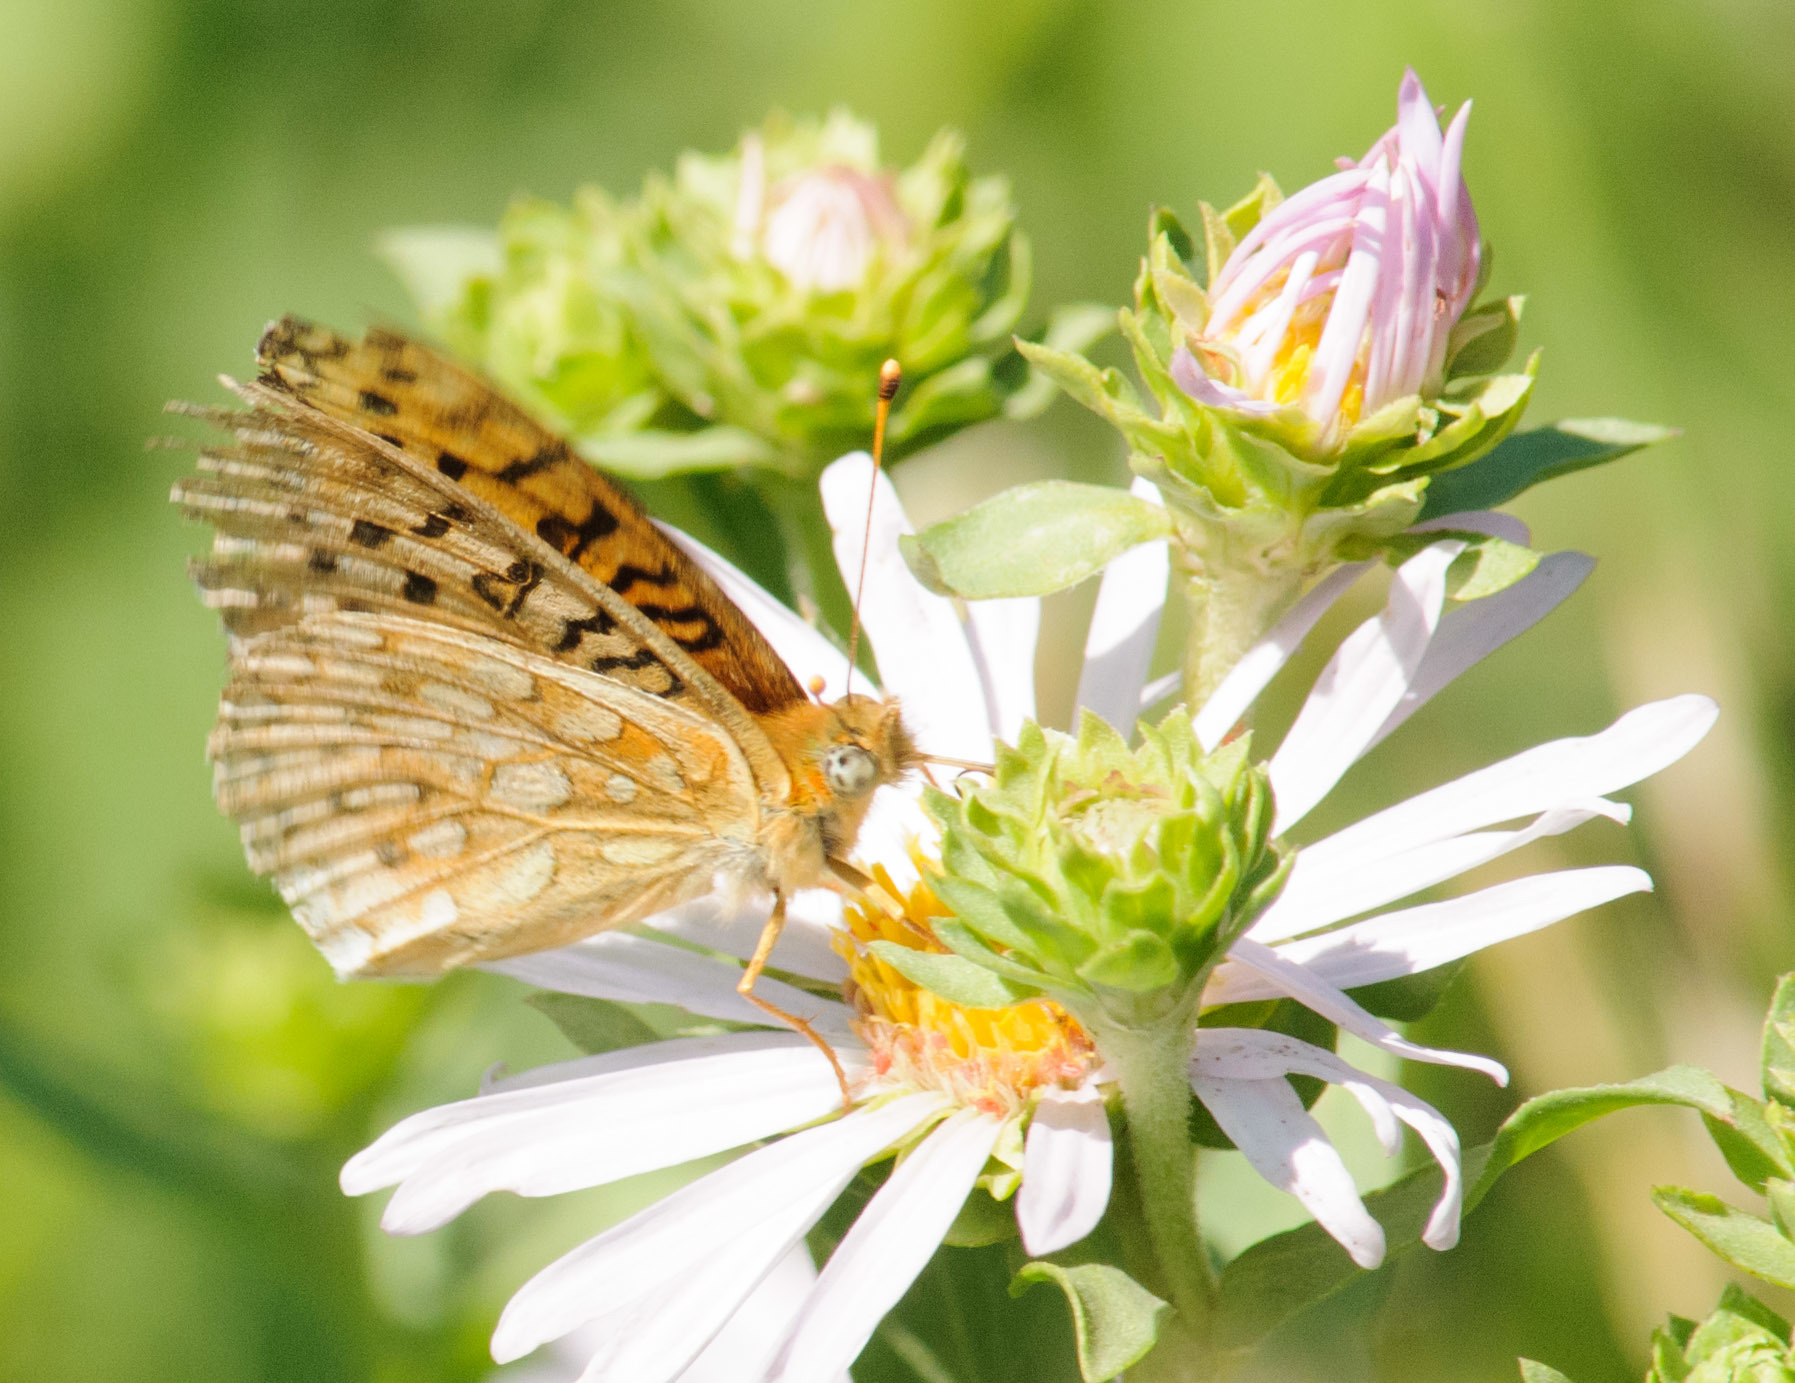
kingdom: Animalia
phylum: Arthropoda
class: Insecta
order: Lepidoptera
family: Nymphalidae
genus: Speyeria
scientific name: Speyeria callippe
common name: Callippe fritillary
